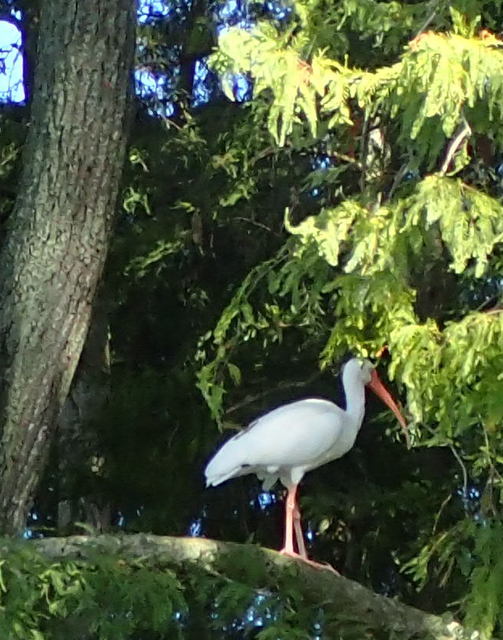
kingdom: Animalia
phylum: Chordata
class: Aves
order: Pelecaniformes
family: Threskiornithidae
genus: Eudocimus
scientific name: Eudocimus albus
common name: White ibis
